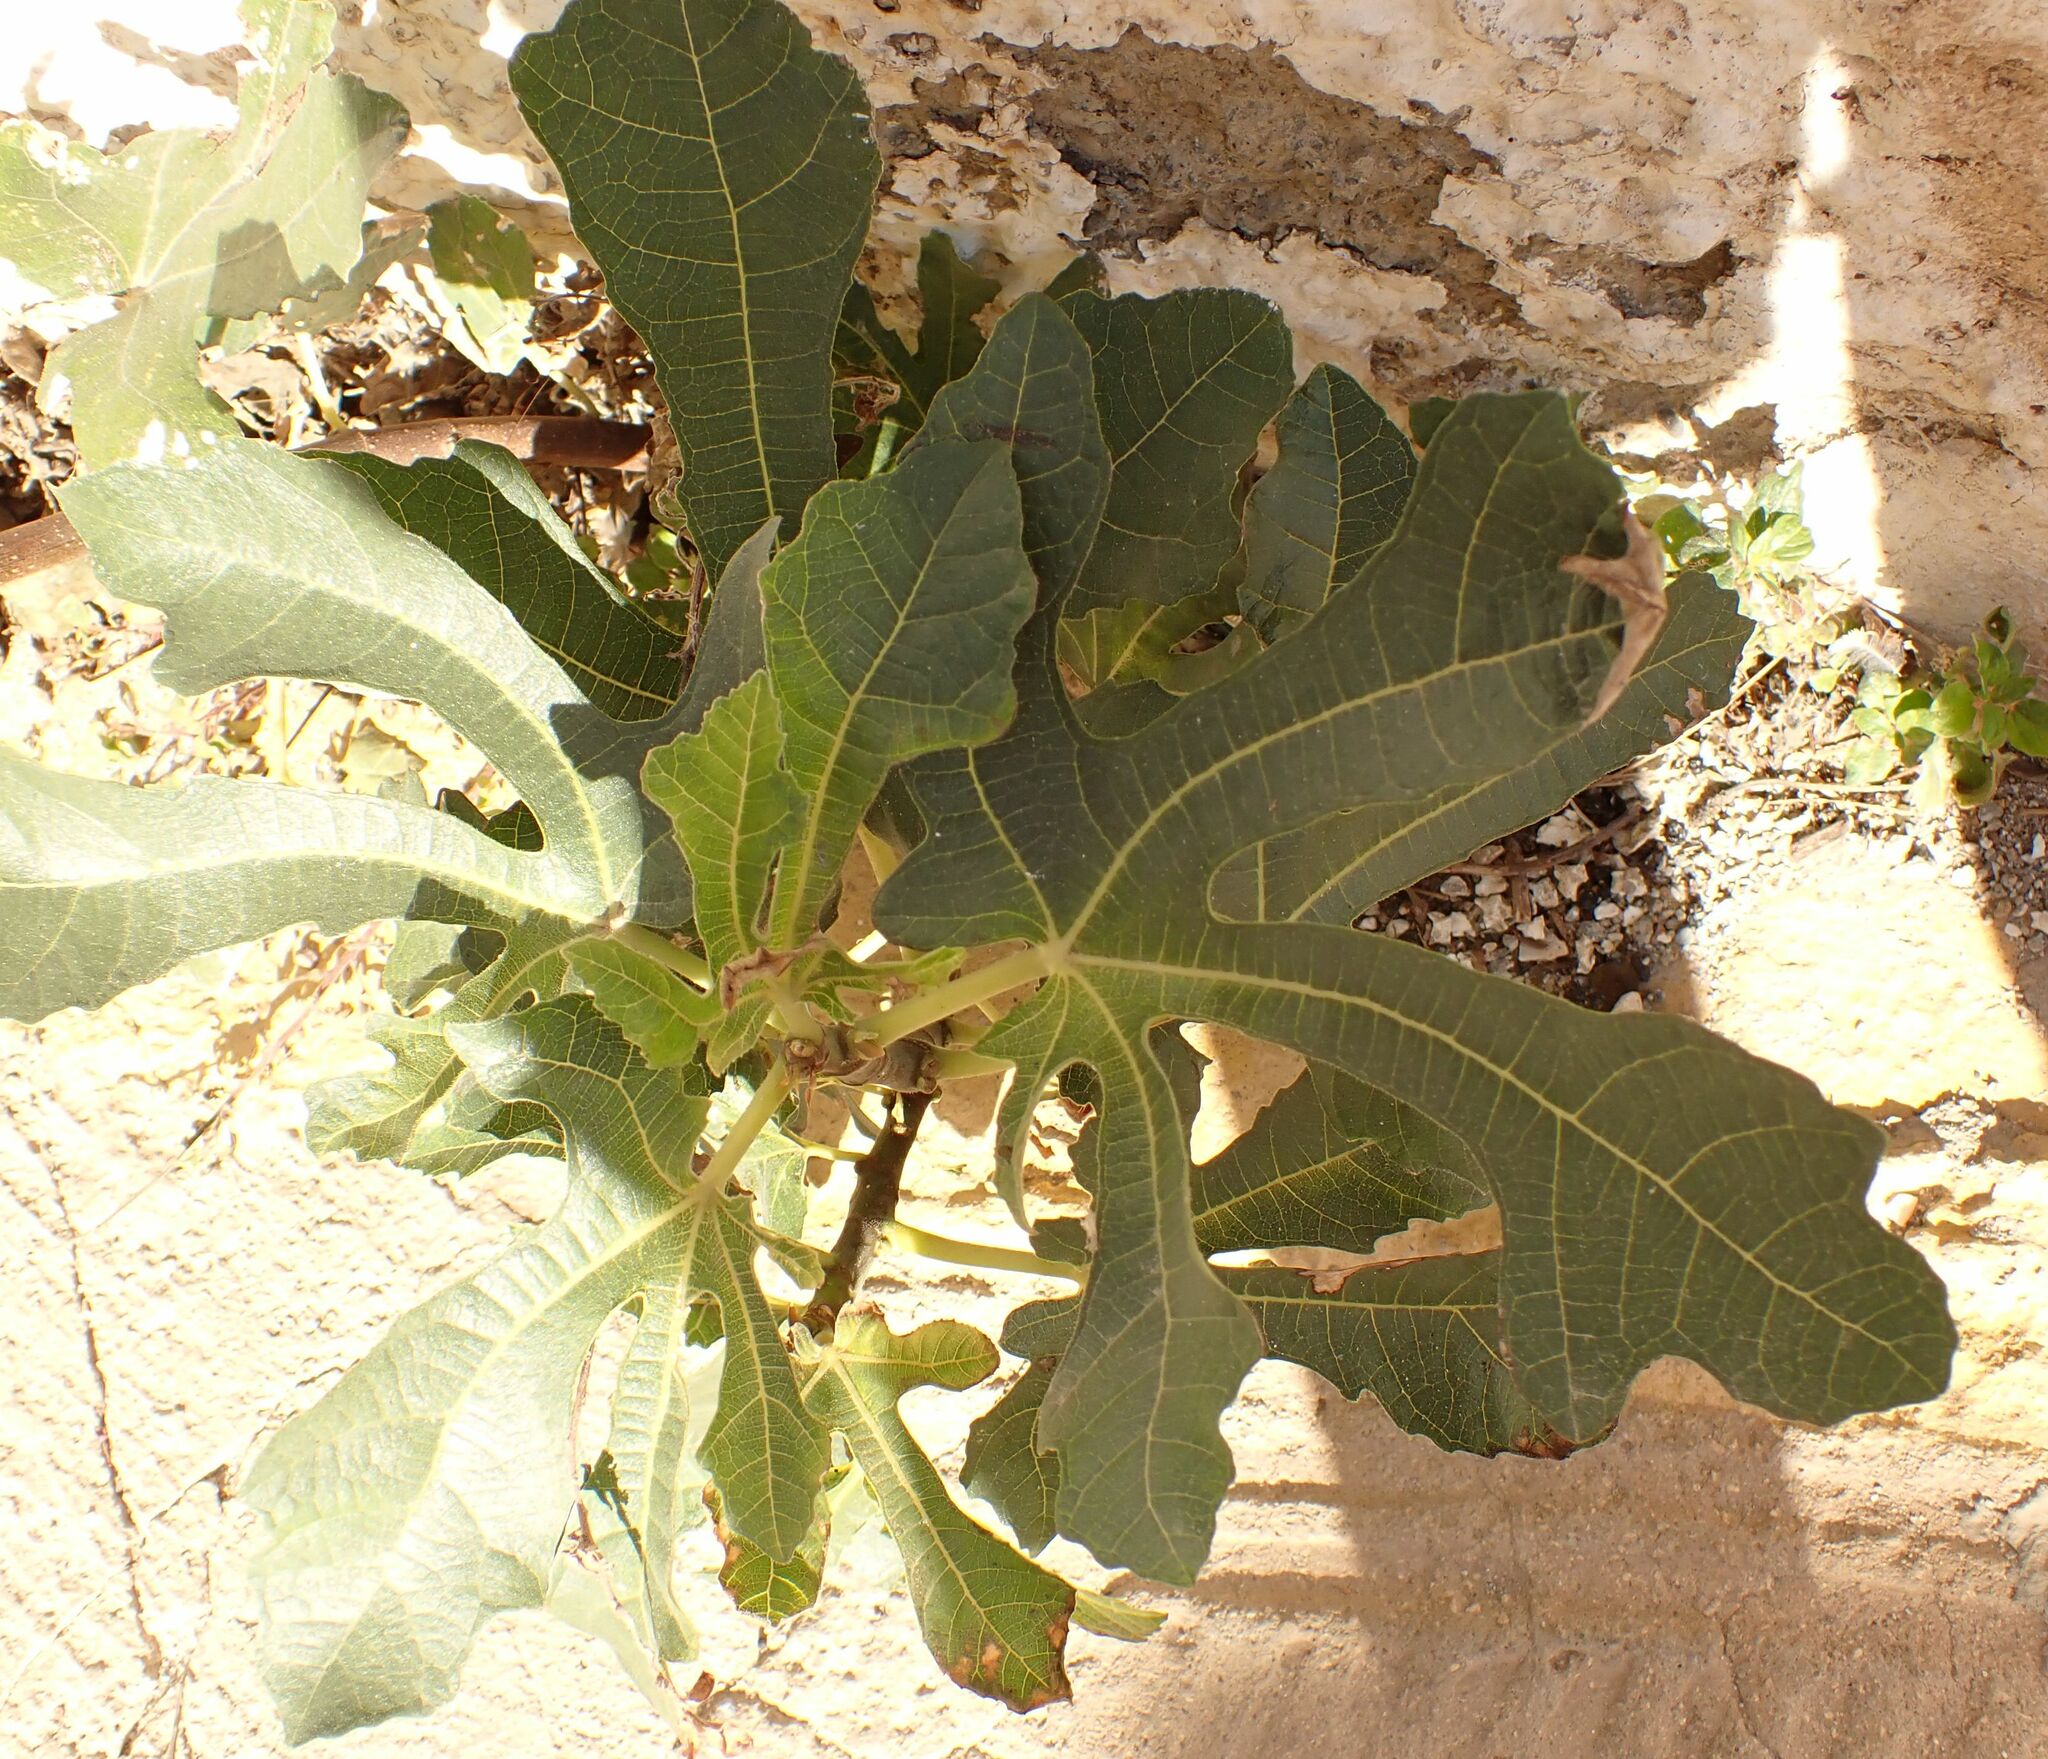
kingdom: Plantae
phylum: Tracheophyta
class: Magnoliopsida
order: Rosales
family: Moraceae
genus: Ficus
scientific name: Ficus carica
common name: Fig
